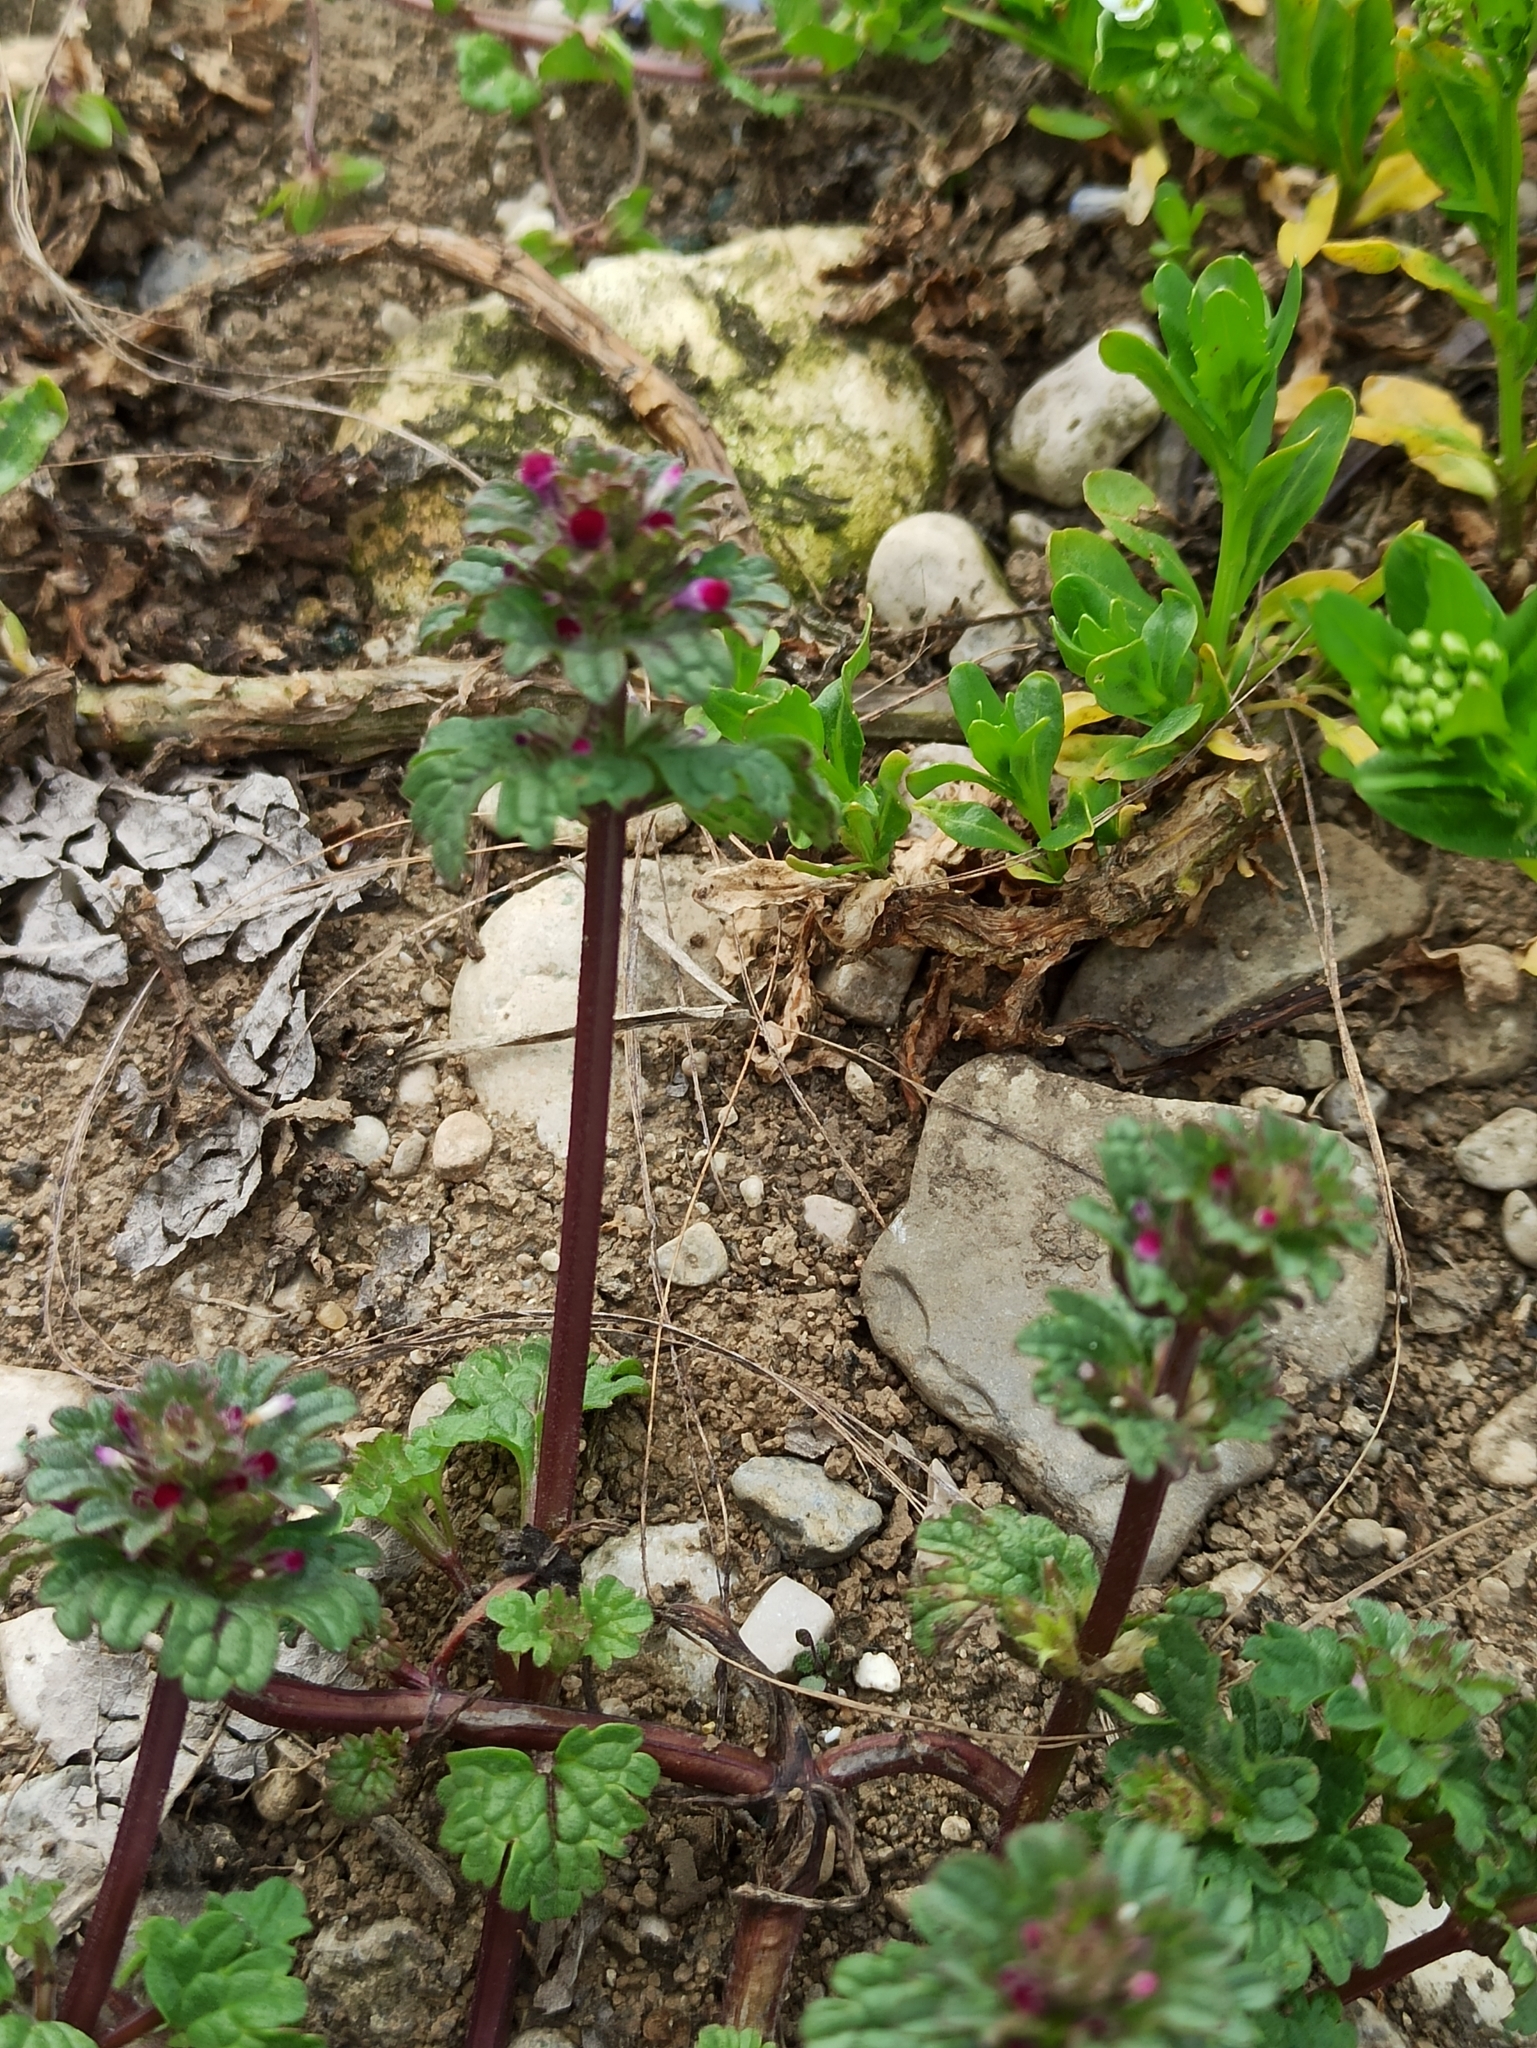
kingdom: Plantae
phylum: Tracheophyta
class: Magnoliopsida
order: Lamiales
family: Lamiaceae
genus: Lamium
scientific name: Lamium amplexicaule
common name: Henbit dead-nettle
